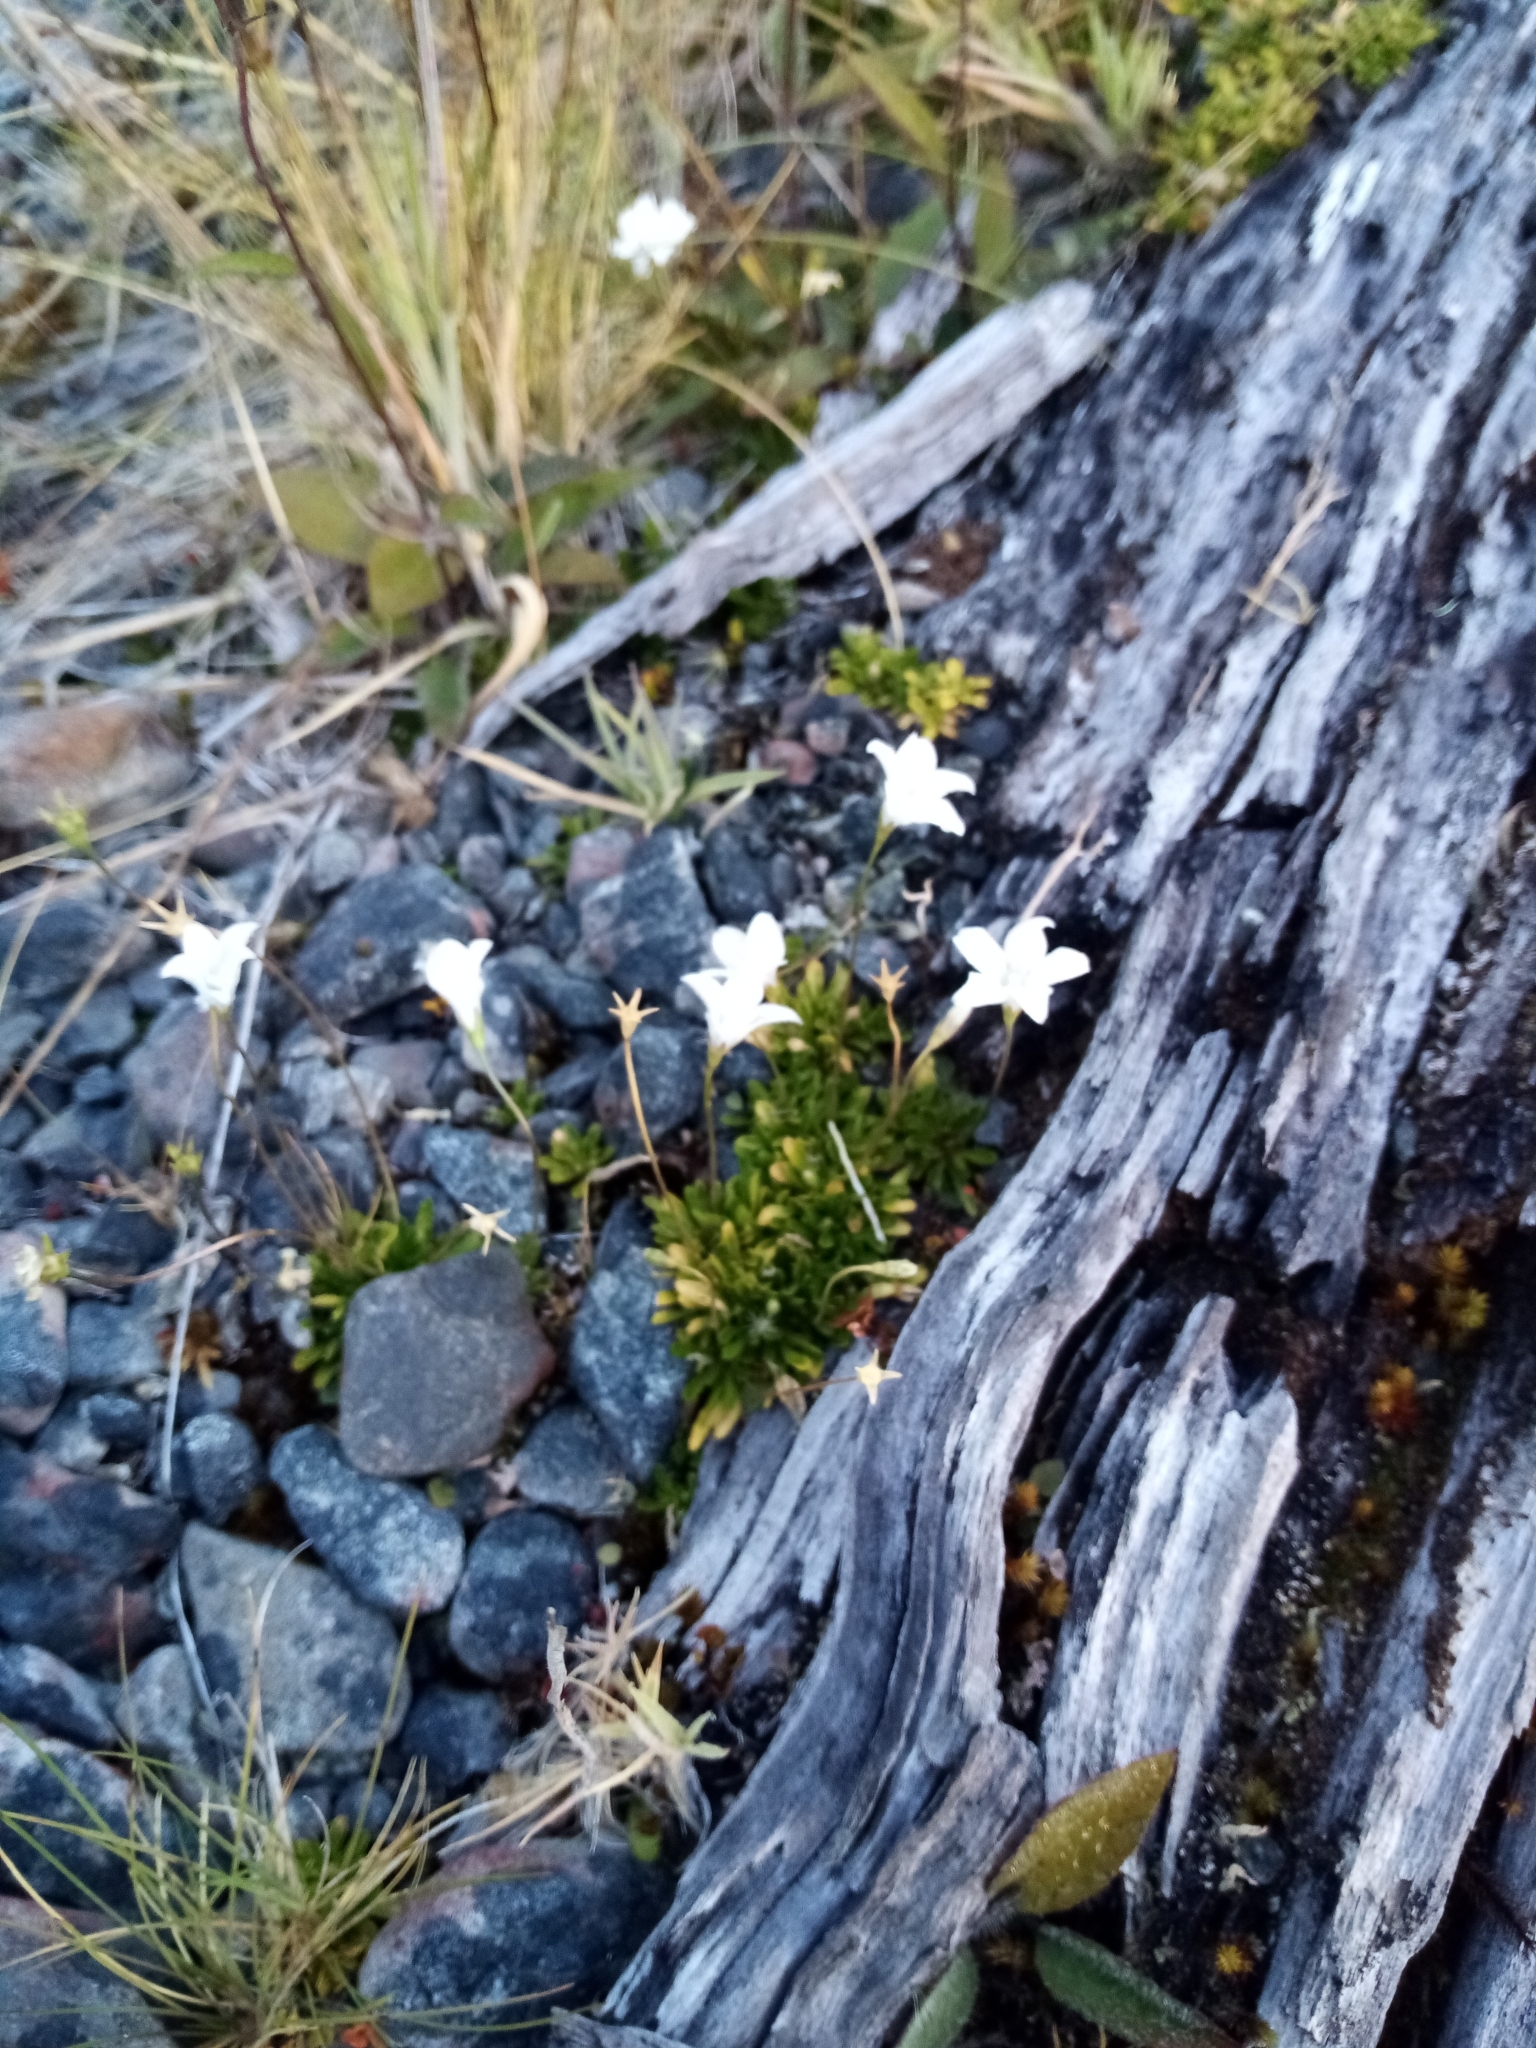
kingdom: Plantae
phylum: Tracheophyta
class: Magnoliopsida
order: Asterales
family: Campanulaceae
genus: Wahlenbergia
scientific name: Wahlenbergia albomarginata
